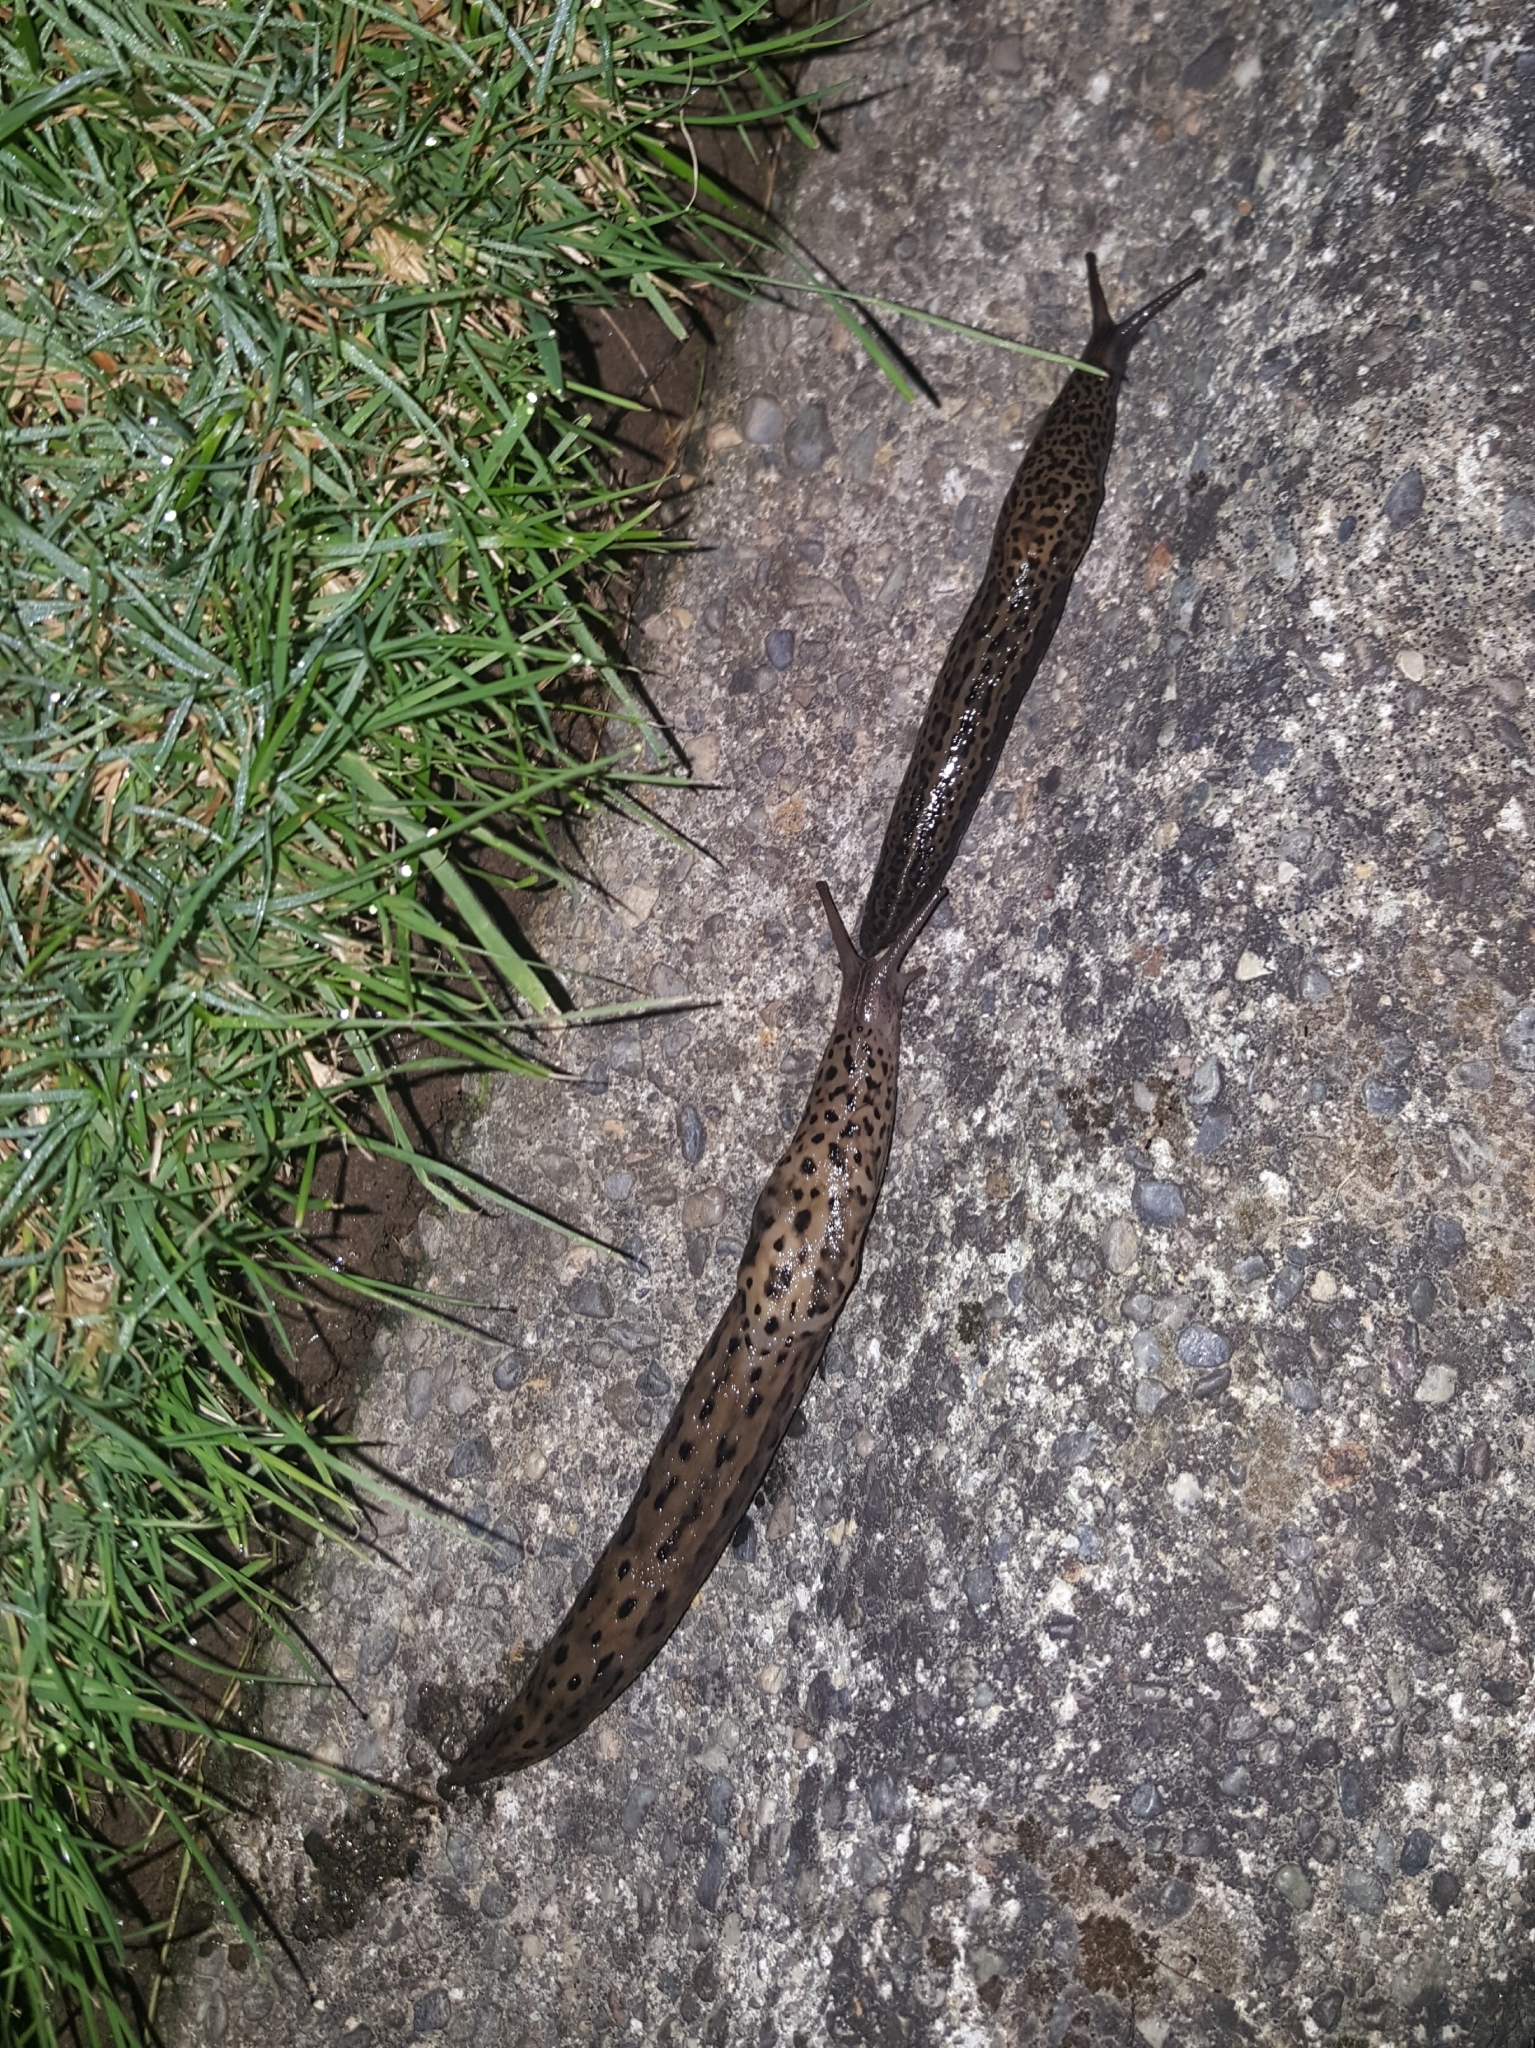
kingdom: Animalia
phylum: Mollusca
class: Gastropoda
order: Stylommatophora
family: Limacidae
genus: Limax
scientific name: Limax maximus
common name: Great grey slug
